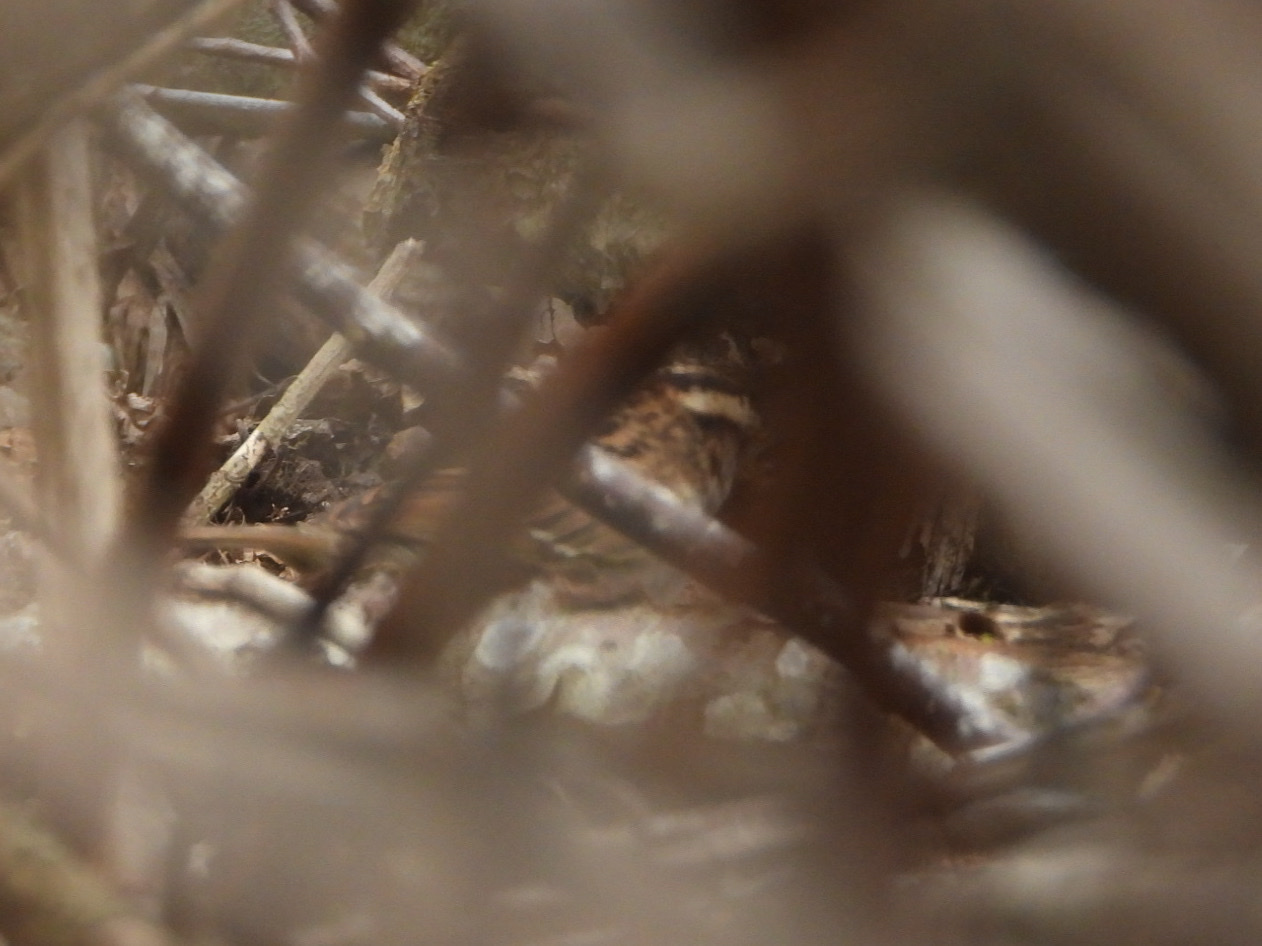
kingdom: Animalia
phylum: Chordata
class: Aves
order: Passeriformes
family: Passerellidae
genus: Zonotrichia
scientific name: Zonotrichia albicollis
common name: White-throated sparrow
